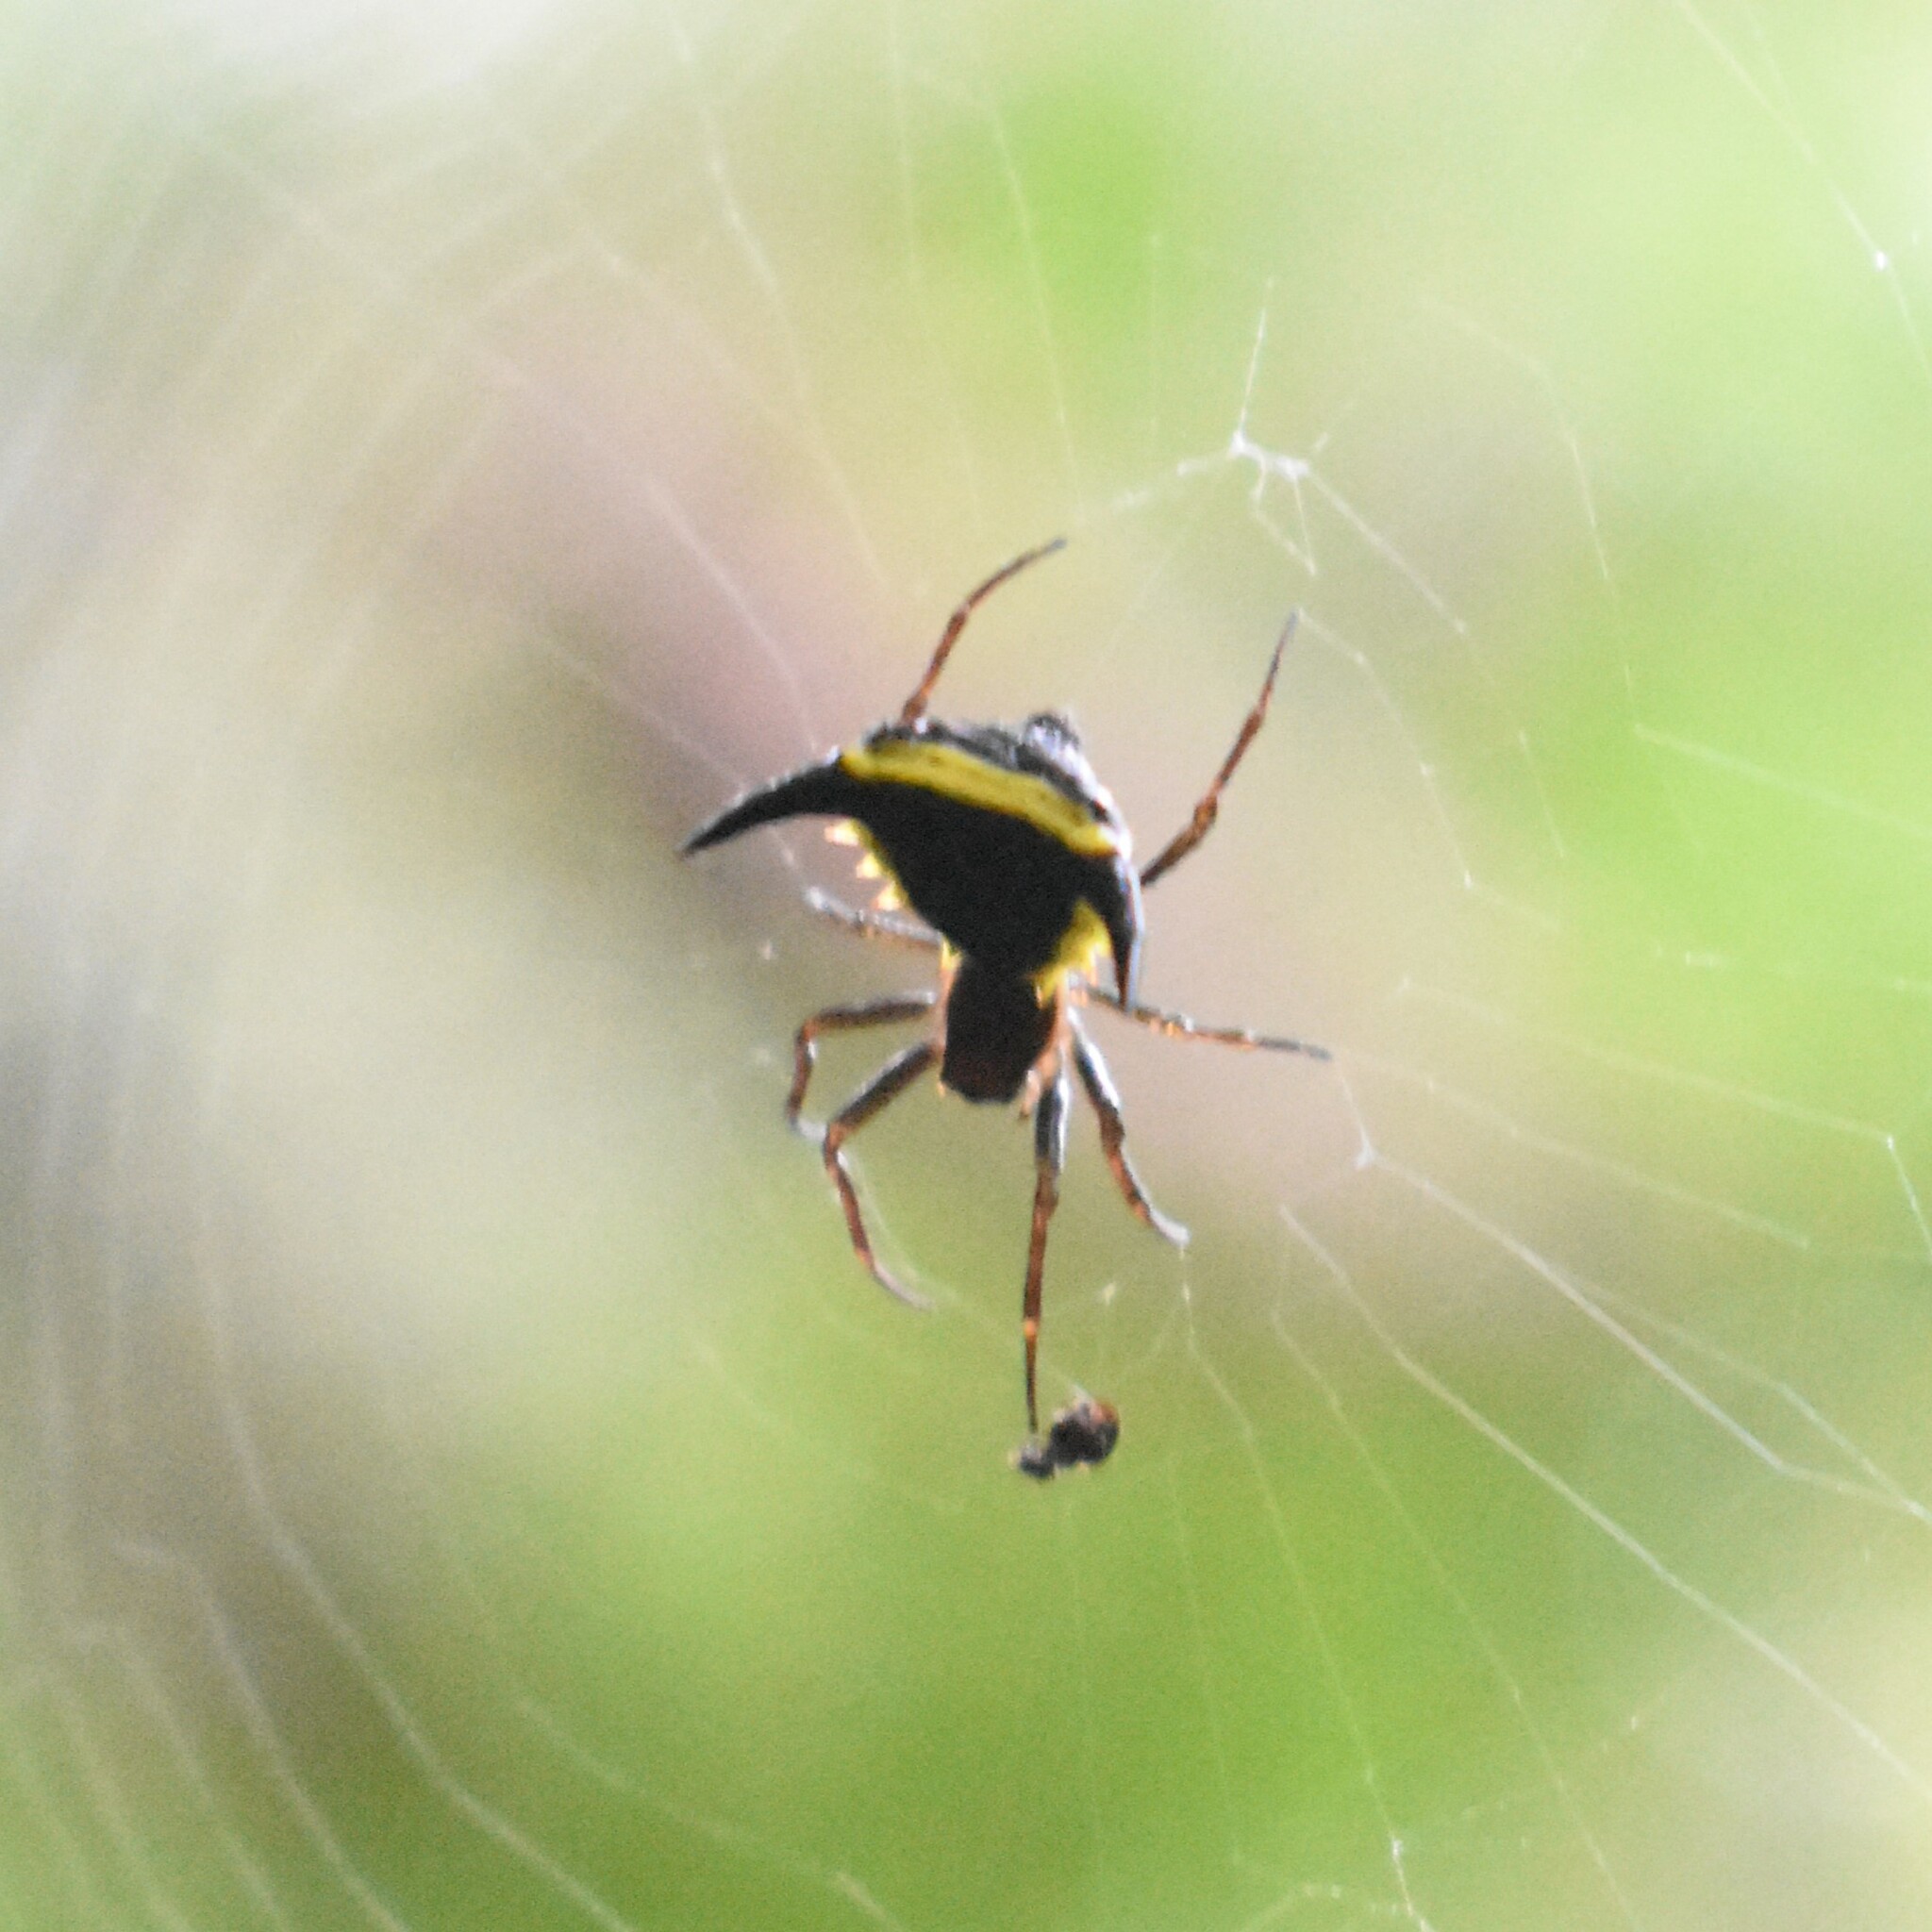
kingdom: Animalia
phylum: Arthropoda
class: Arachnida
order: Araneae
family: Araneidae
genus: Micrathena
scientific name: Micrathena pungens
